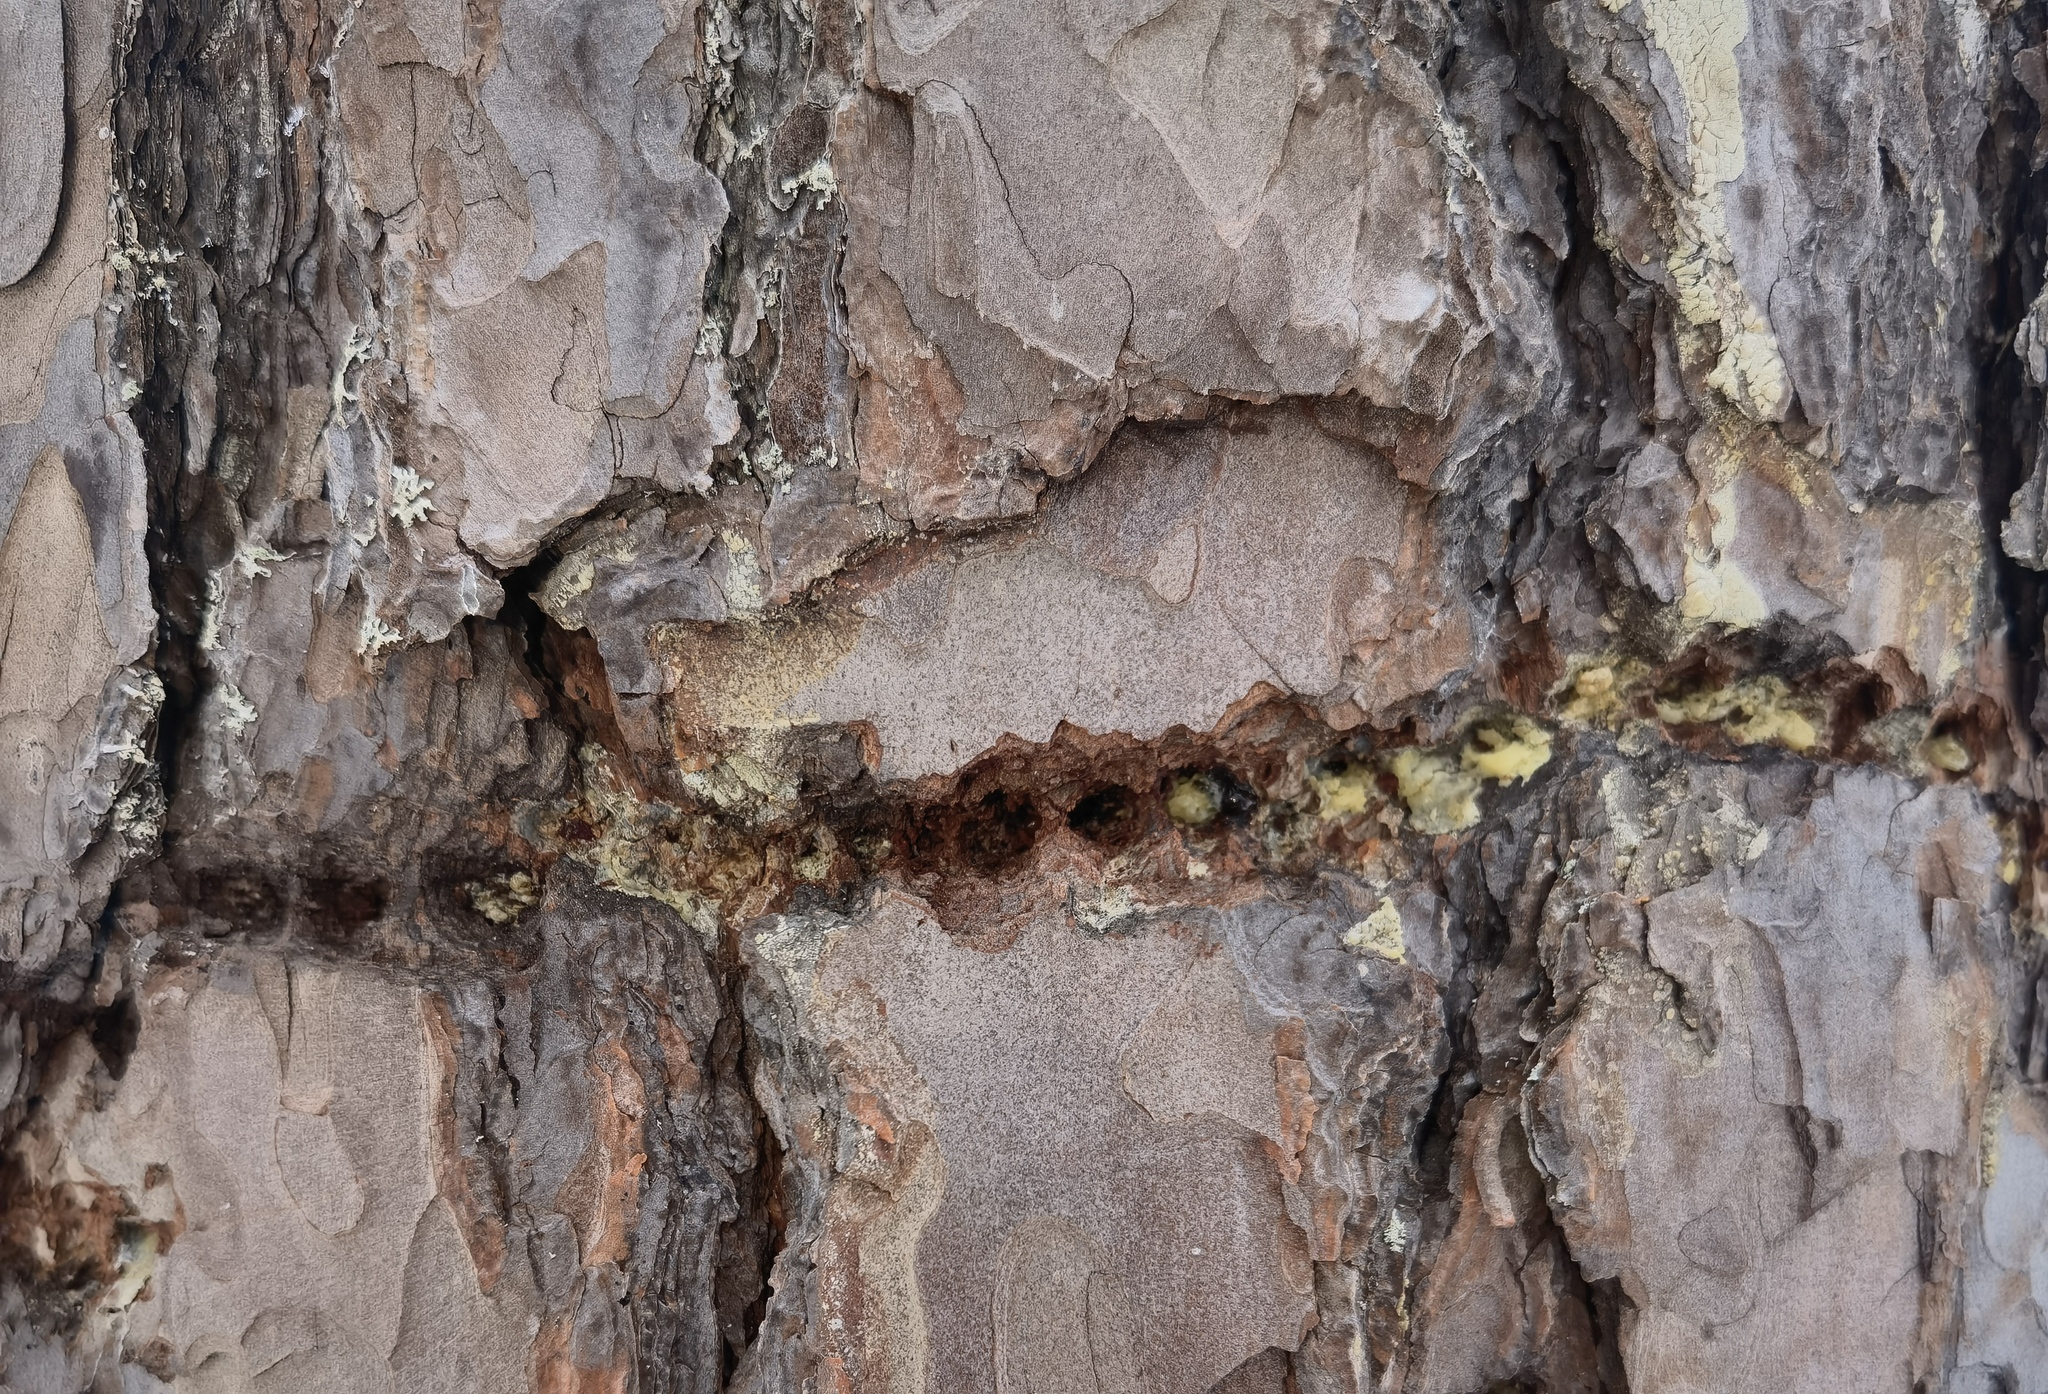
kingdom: Animalia
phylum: Chordata
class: Aves
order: Piciformes
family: Picidae
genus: Picoides
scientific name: Picoides tridactylus
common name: Eurasian three-toed woodpecker
